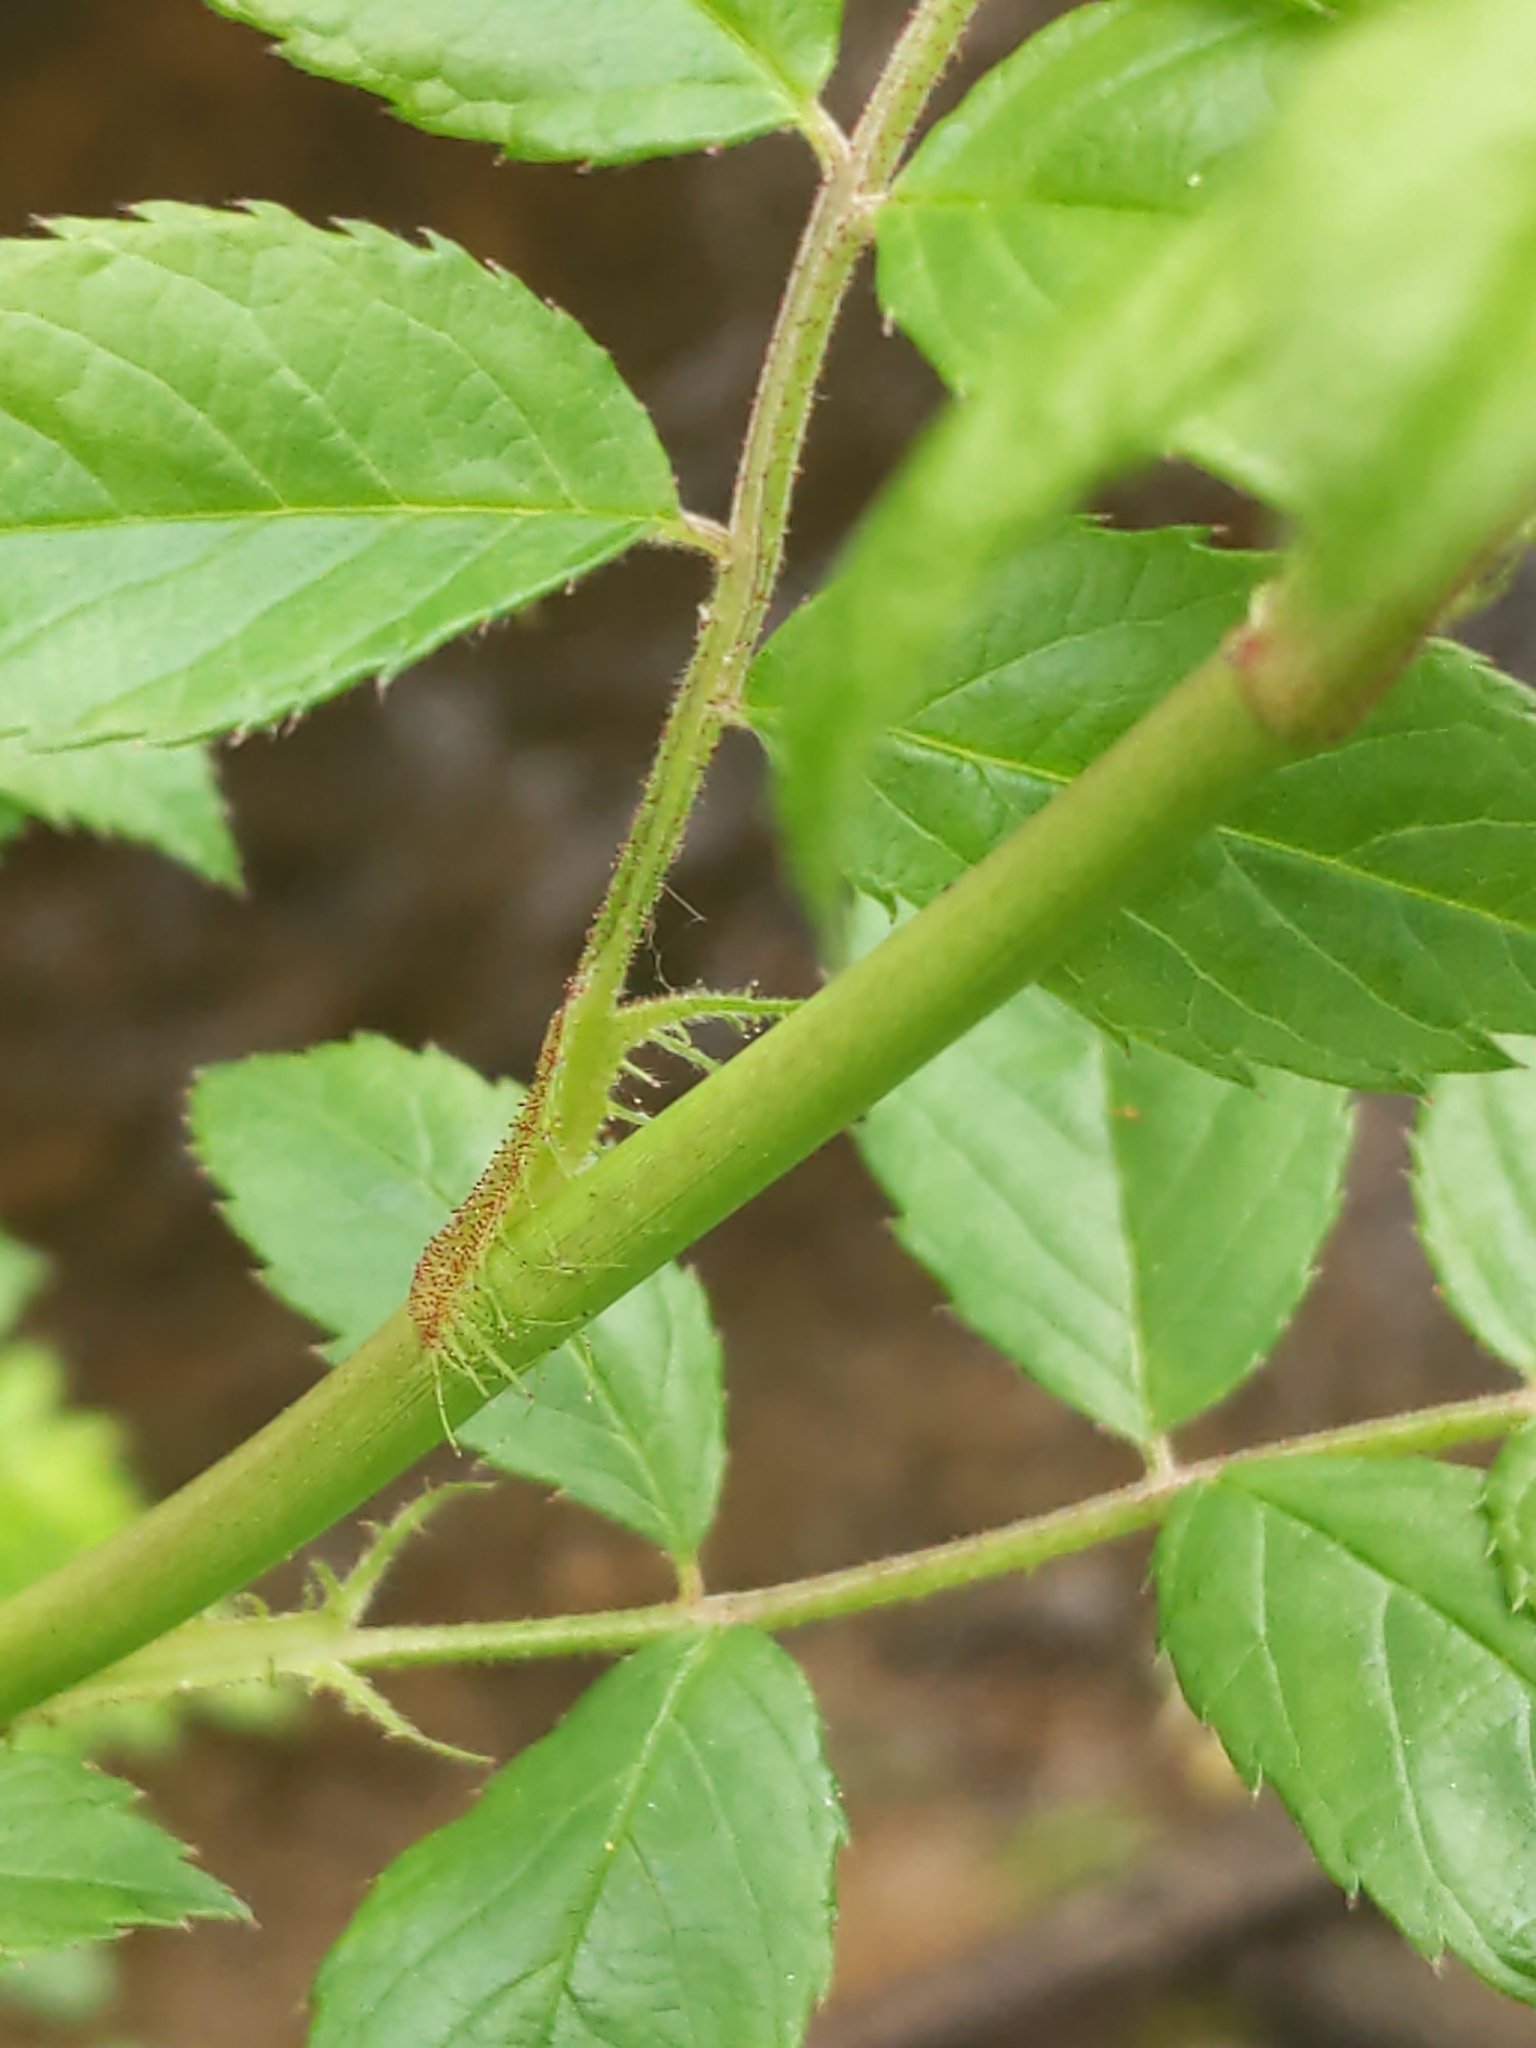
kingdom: Plantae
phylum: Tracheophyta
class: Magnoliopsida
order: Rosales
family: Rosaceae
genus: Rosa
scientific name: Rosa multiflora
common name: Multiflora rose
